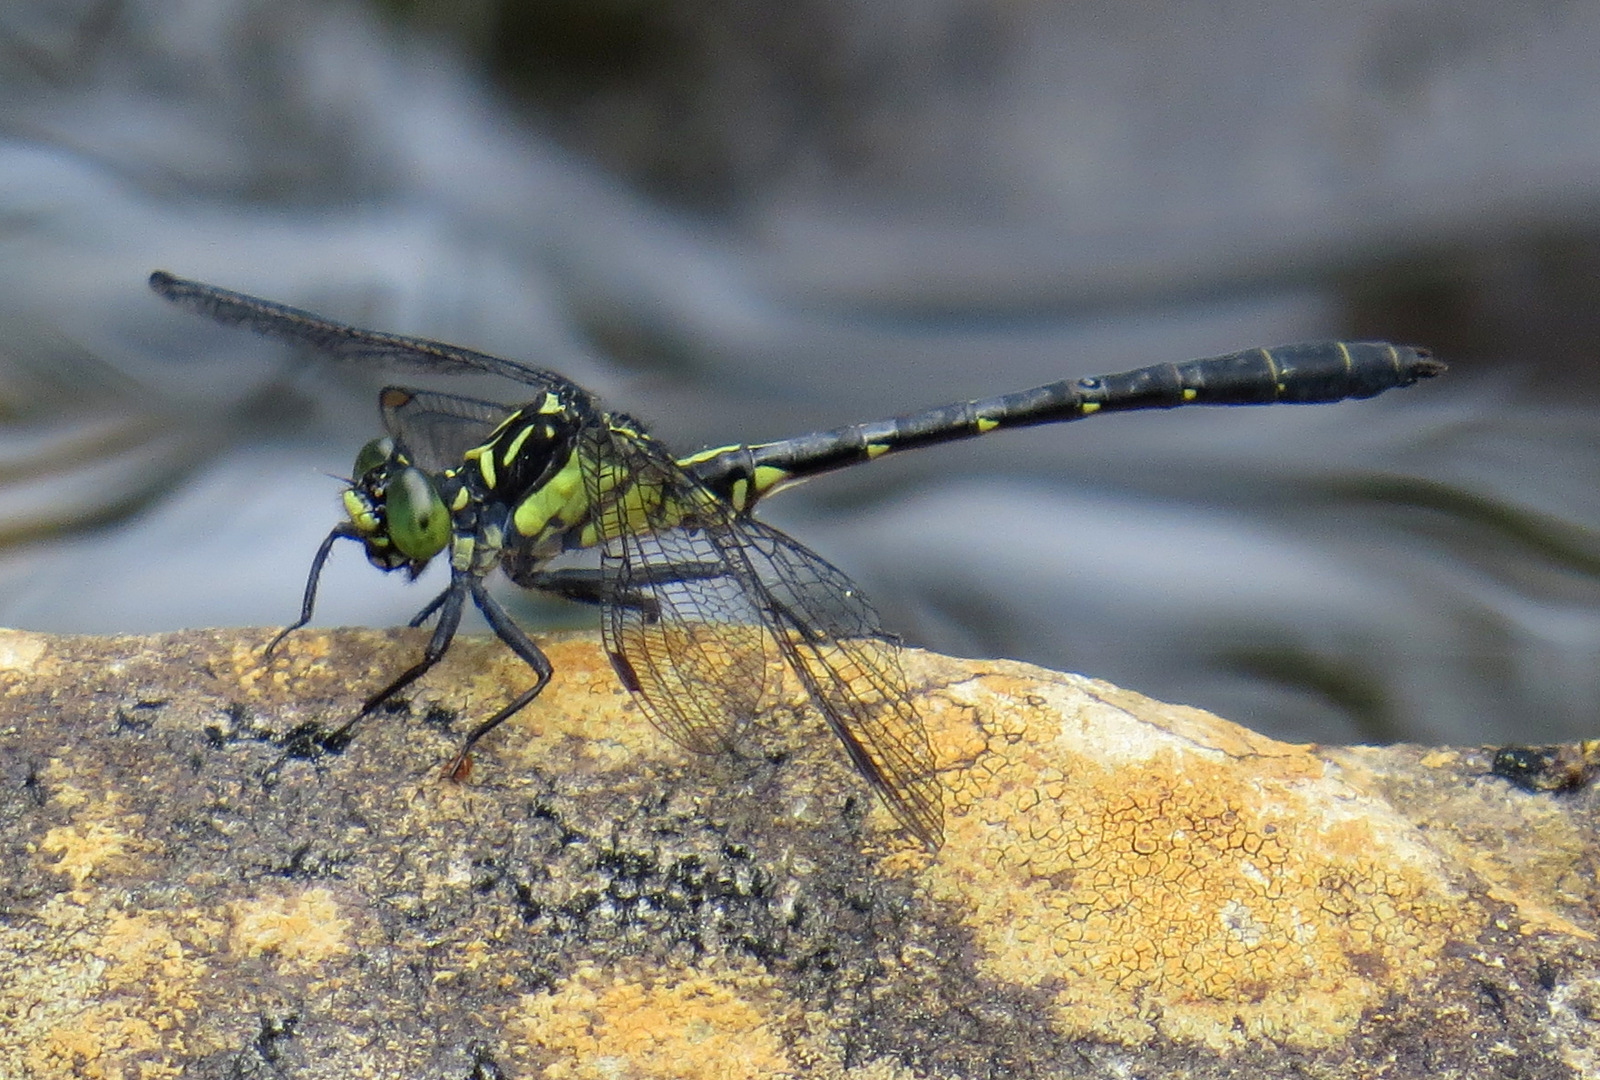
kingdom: Animalia
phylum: Arthropoda
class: Insecta
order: Odonata
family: Gomphidae
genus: Lanthus
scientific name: Lanthus vernalis
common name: Southern pygmy clubtail
